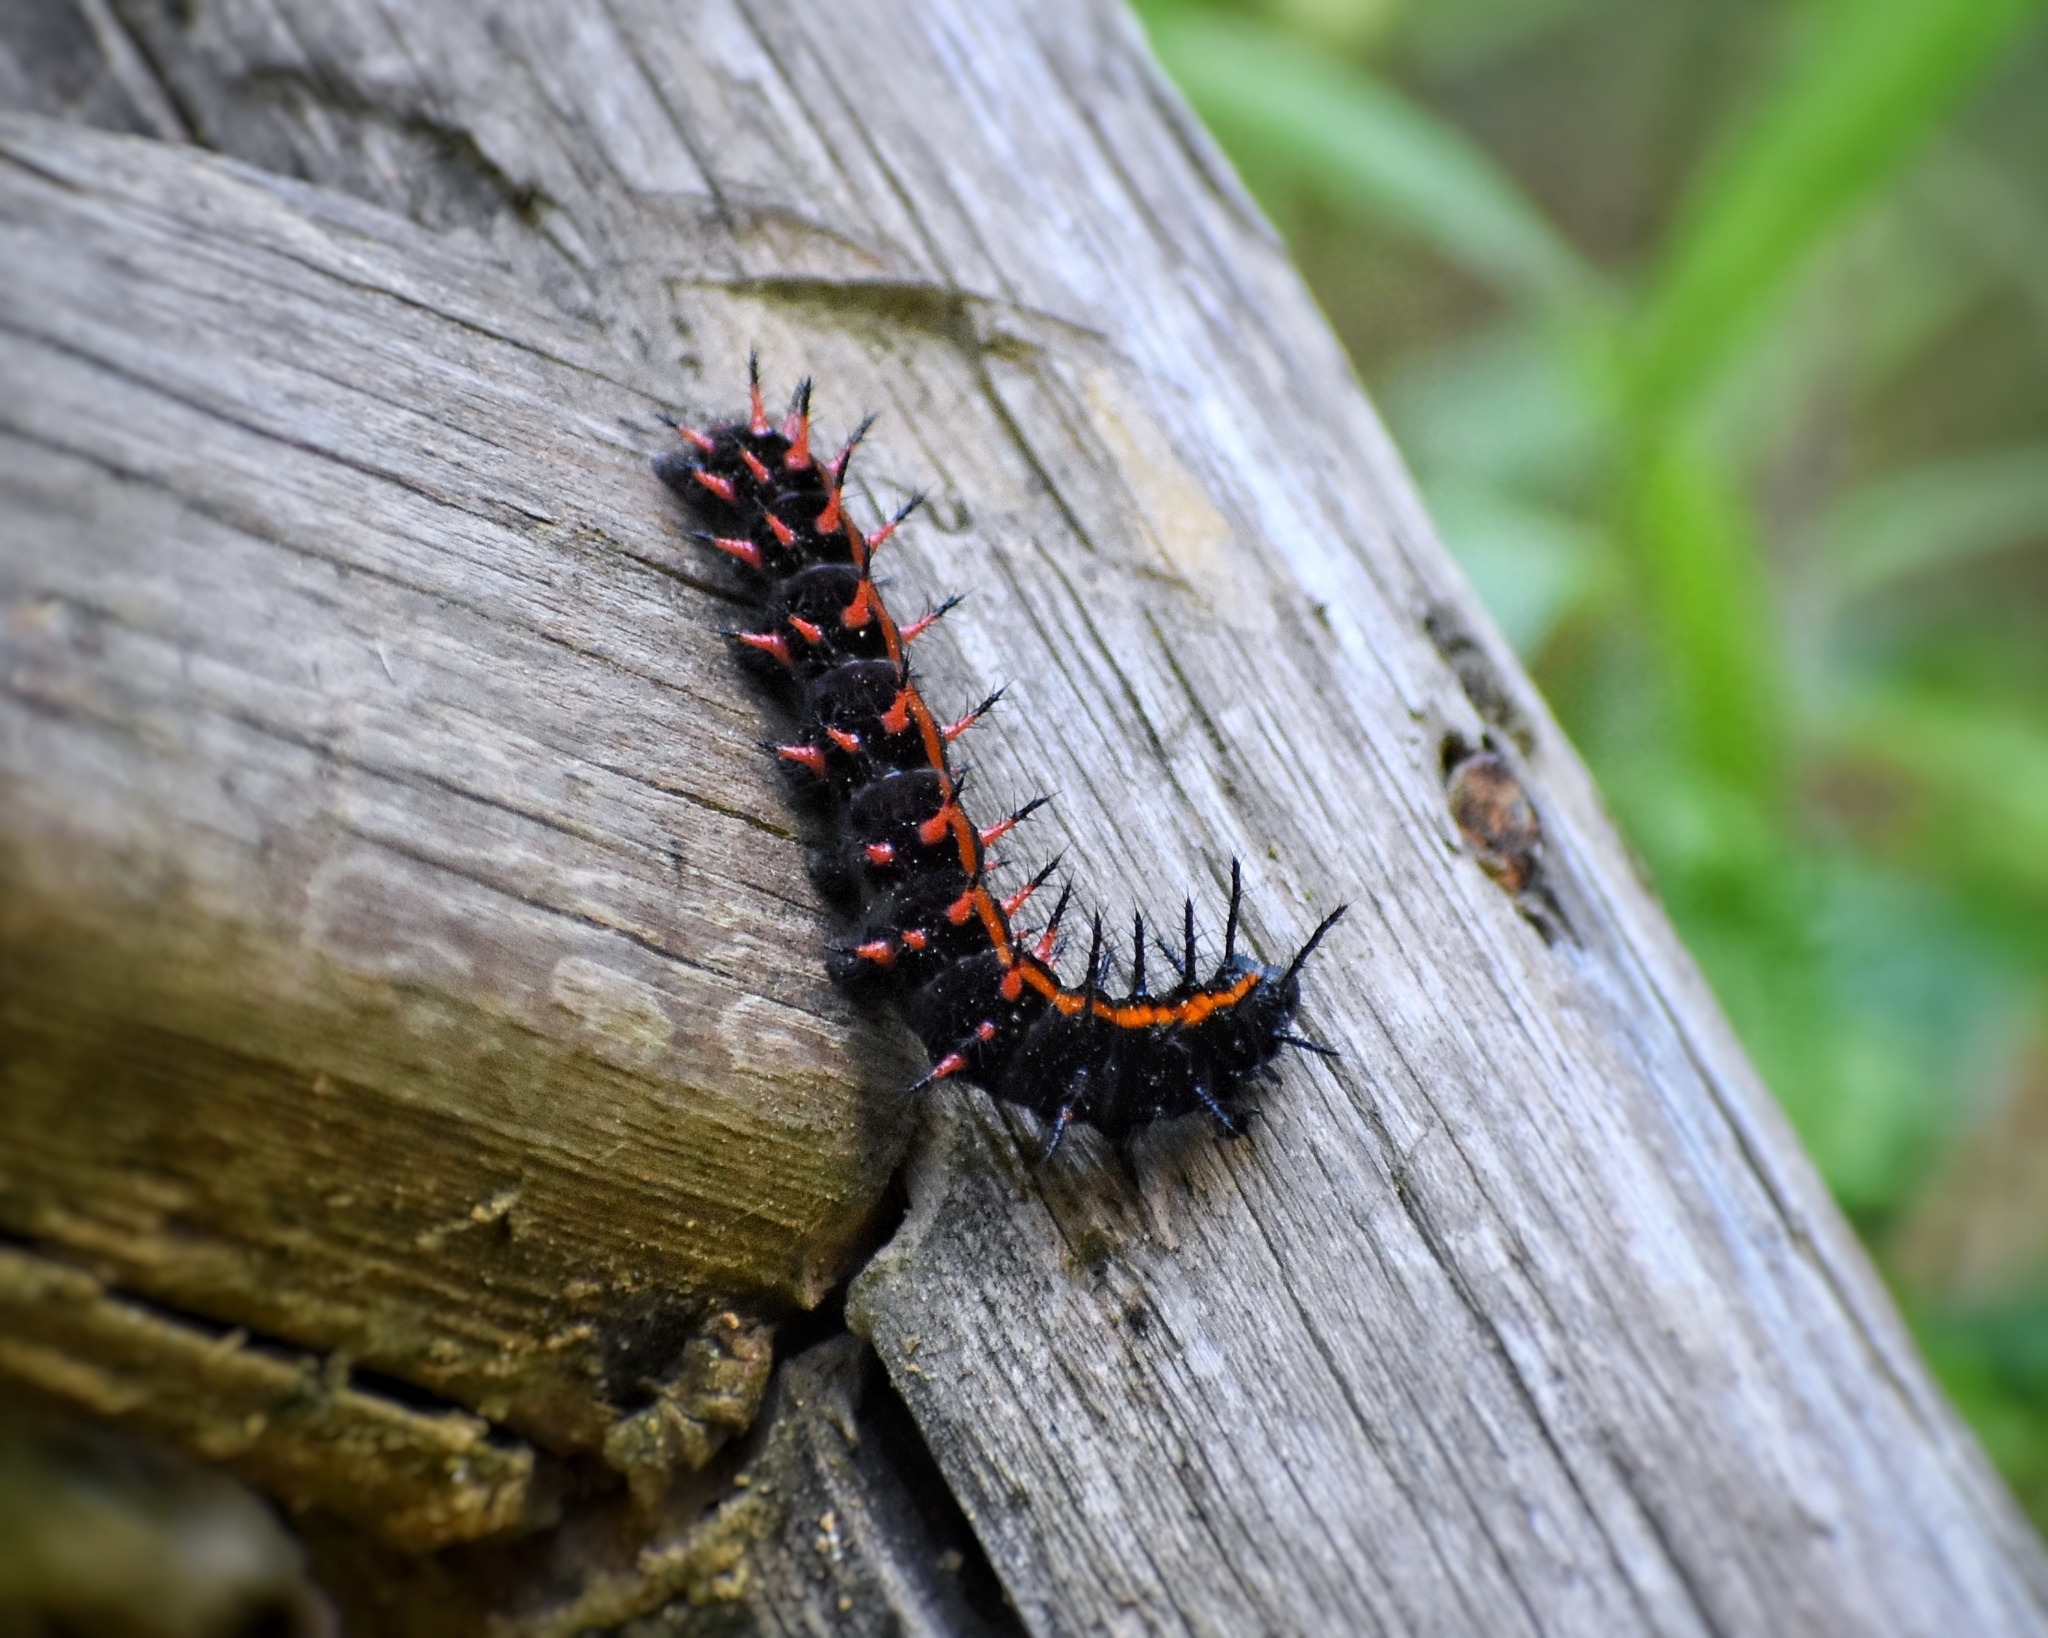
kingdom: Animalia
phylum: Arthropoda
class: Insecta
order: Lepidoptera
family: Nymphalidae
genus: Argynnis
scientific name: Argynnis hyperbius
